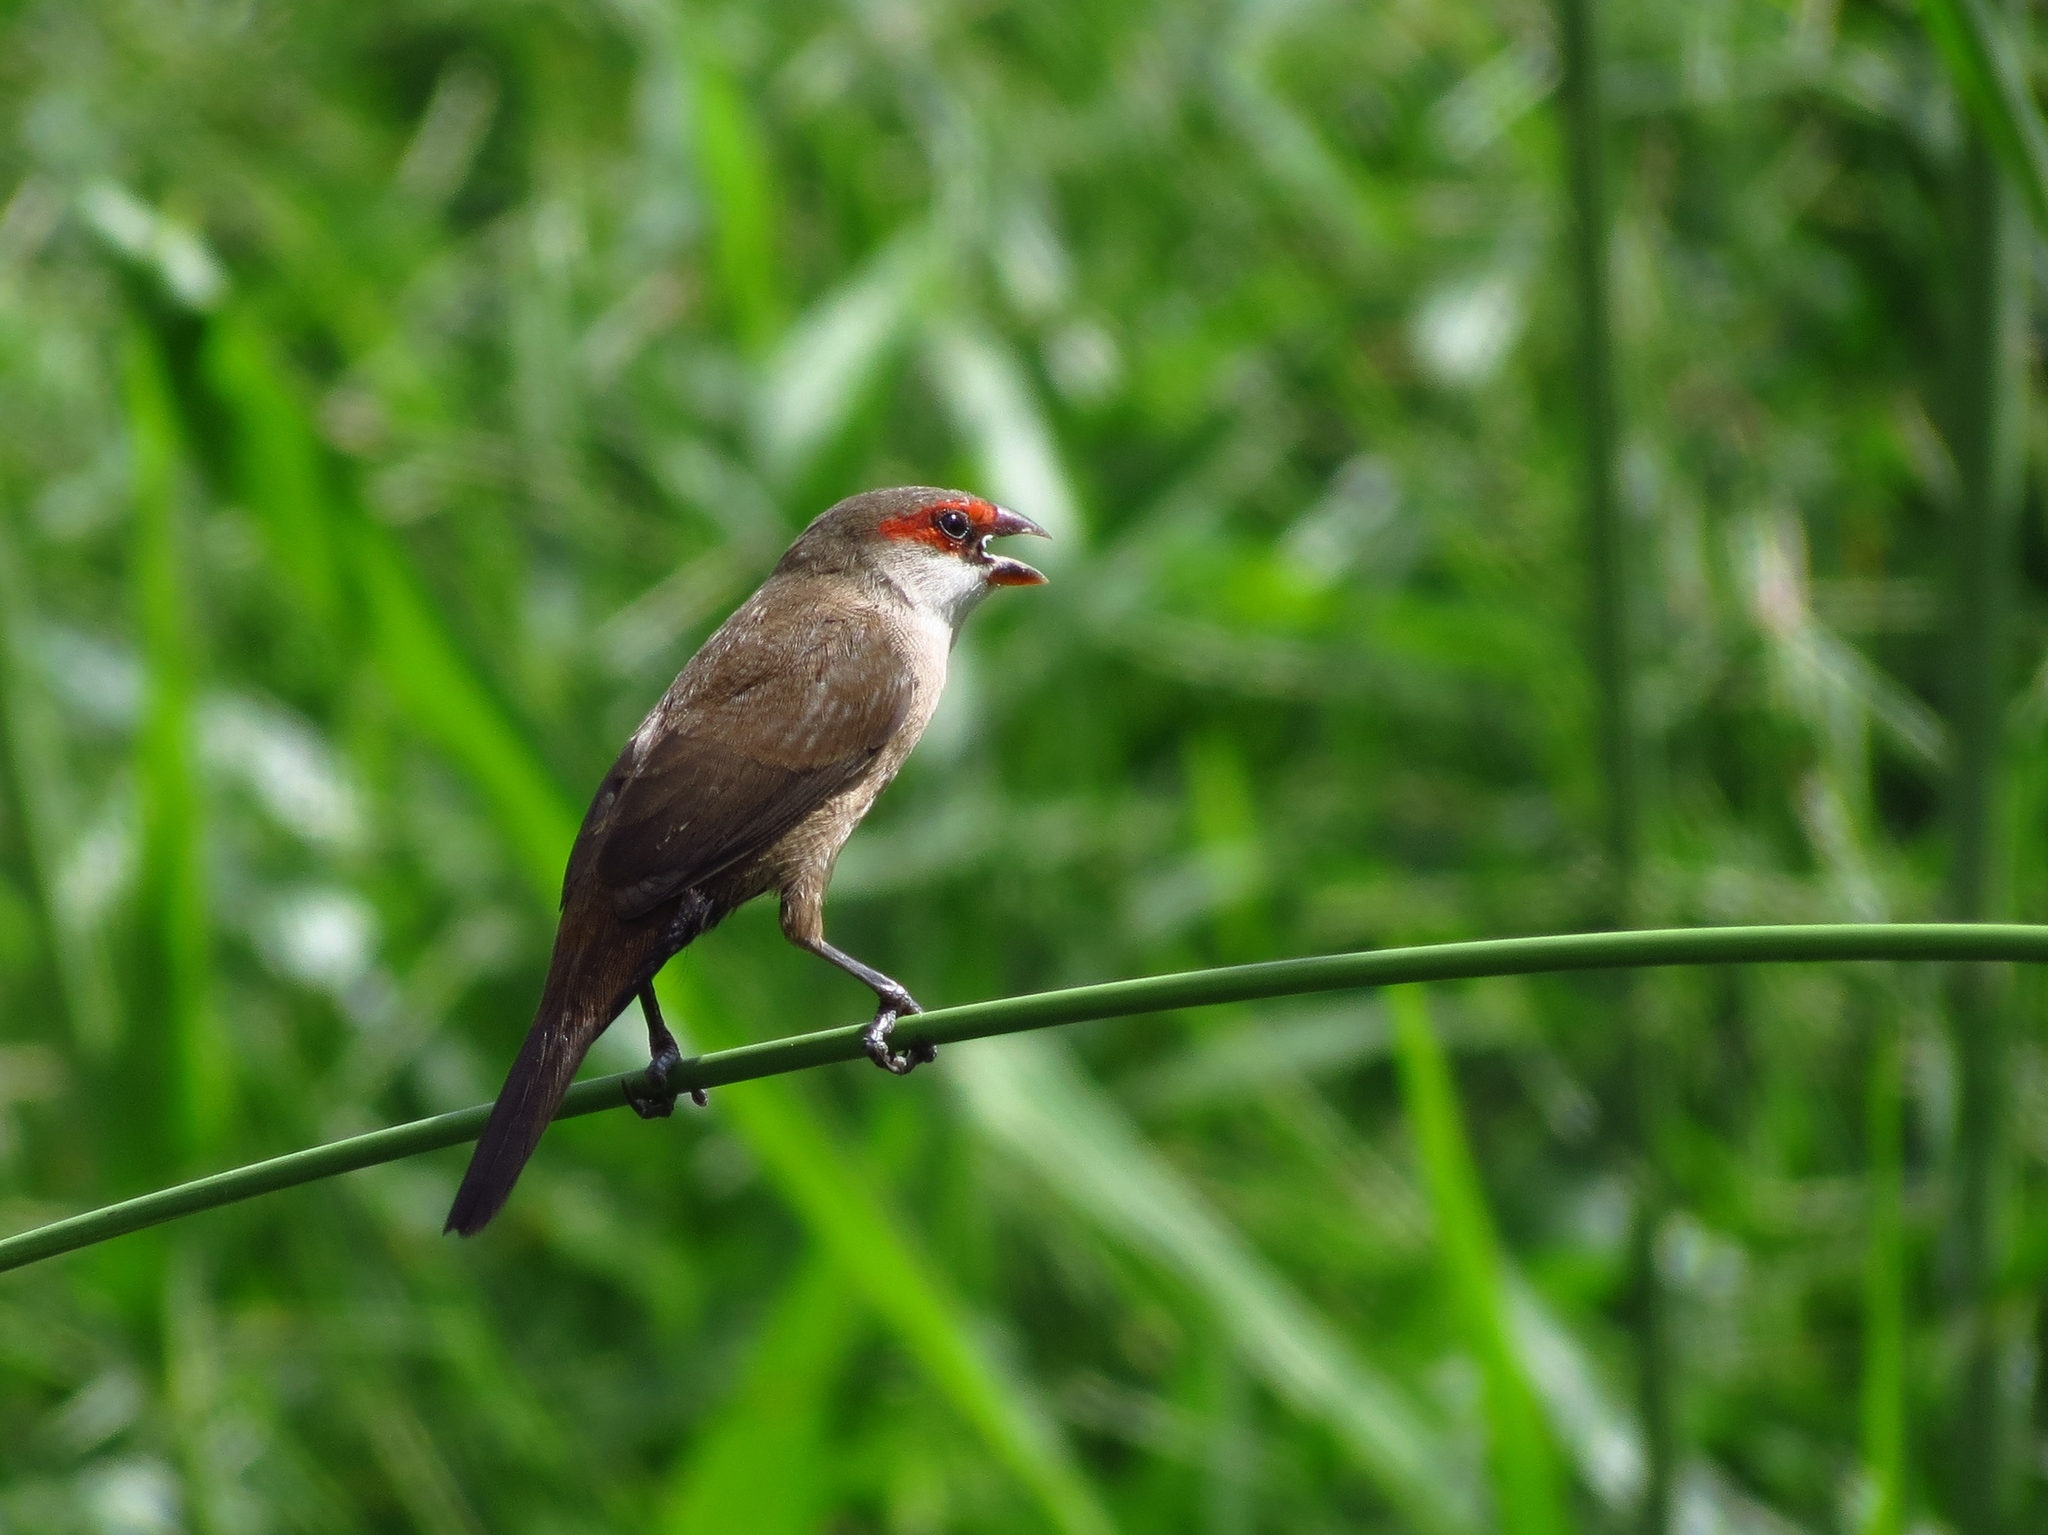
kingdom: Animalia
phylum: Chordata
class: Aves
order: Passeriformes
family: Estrildidae
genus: Estrilda
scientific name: Estrilda astrild
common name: Common waxbill
